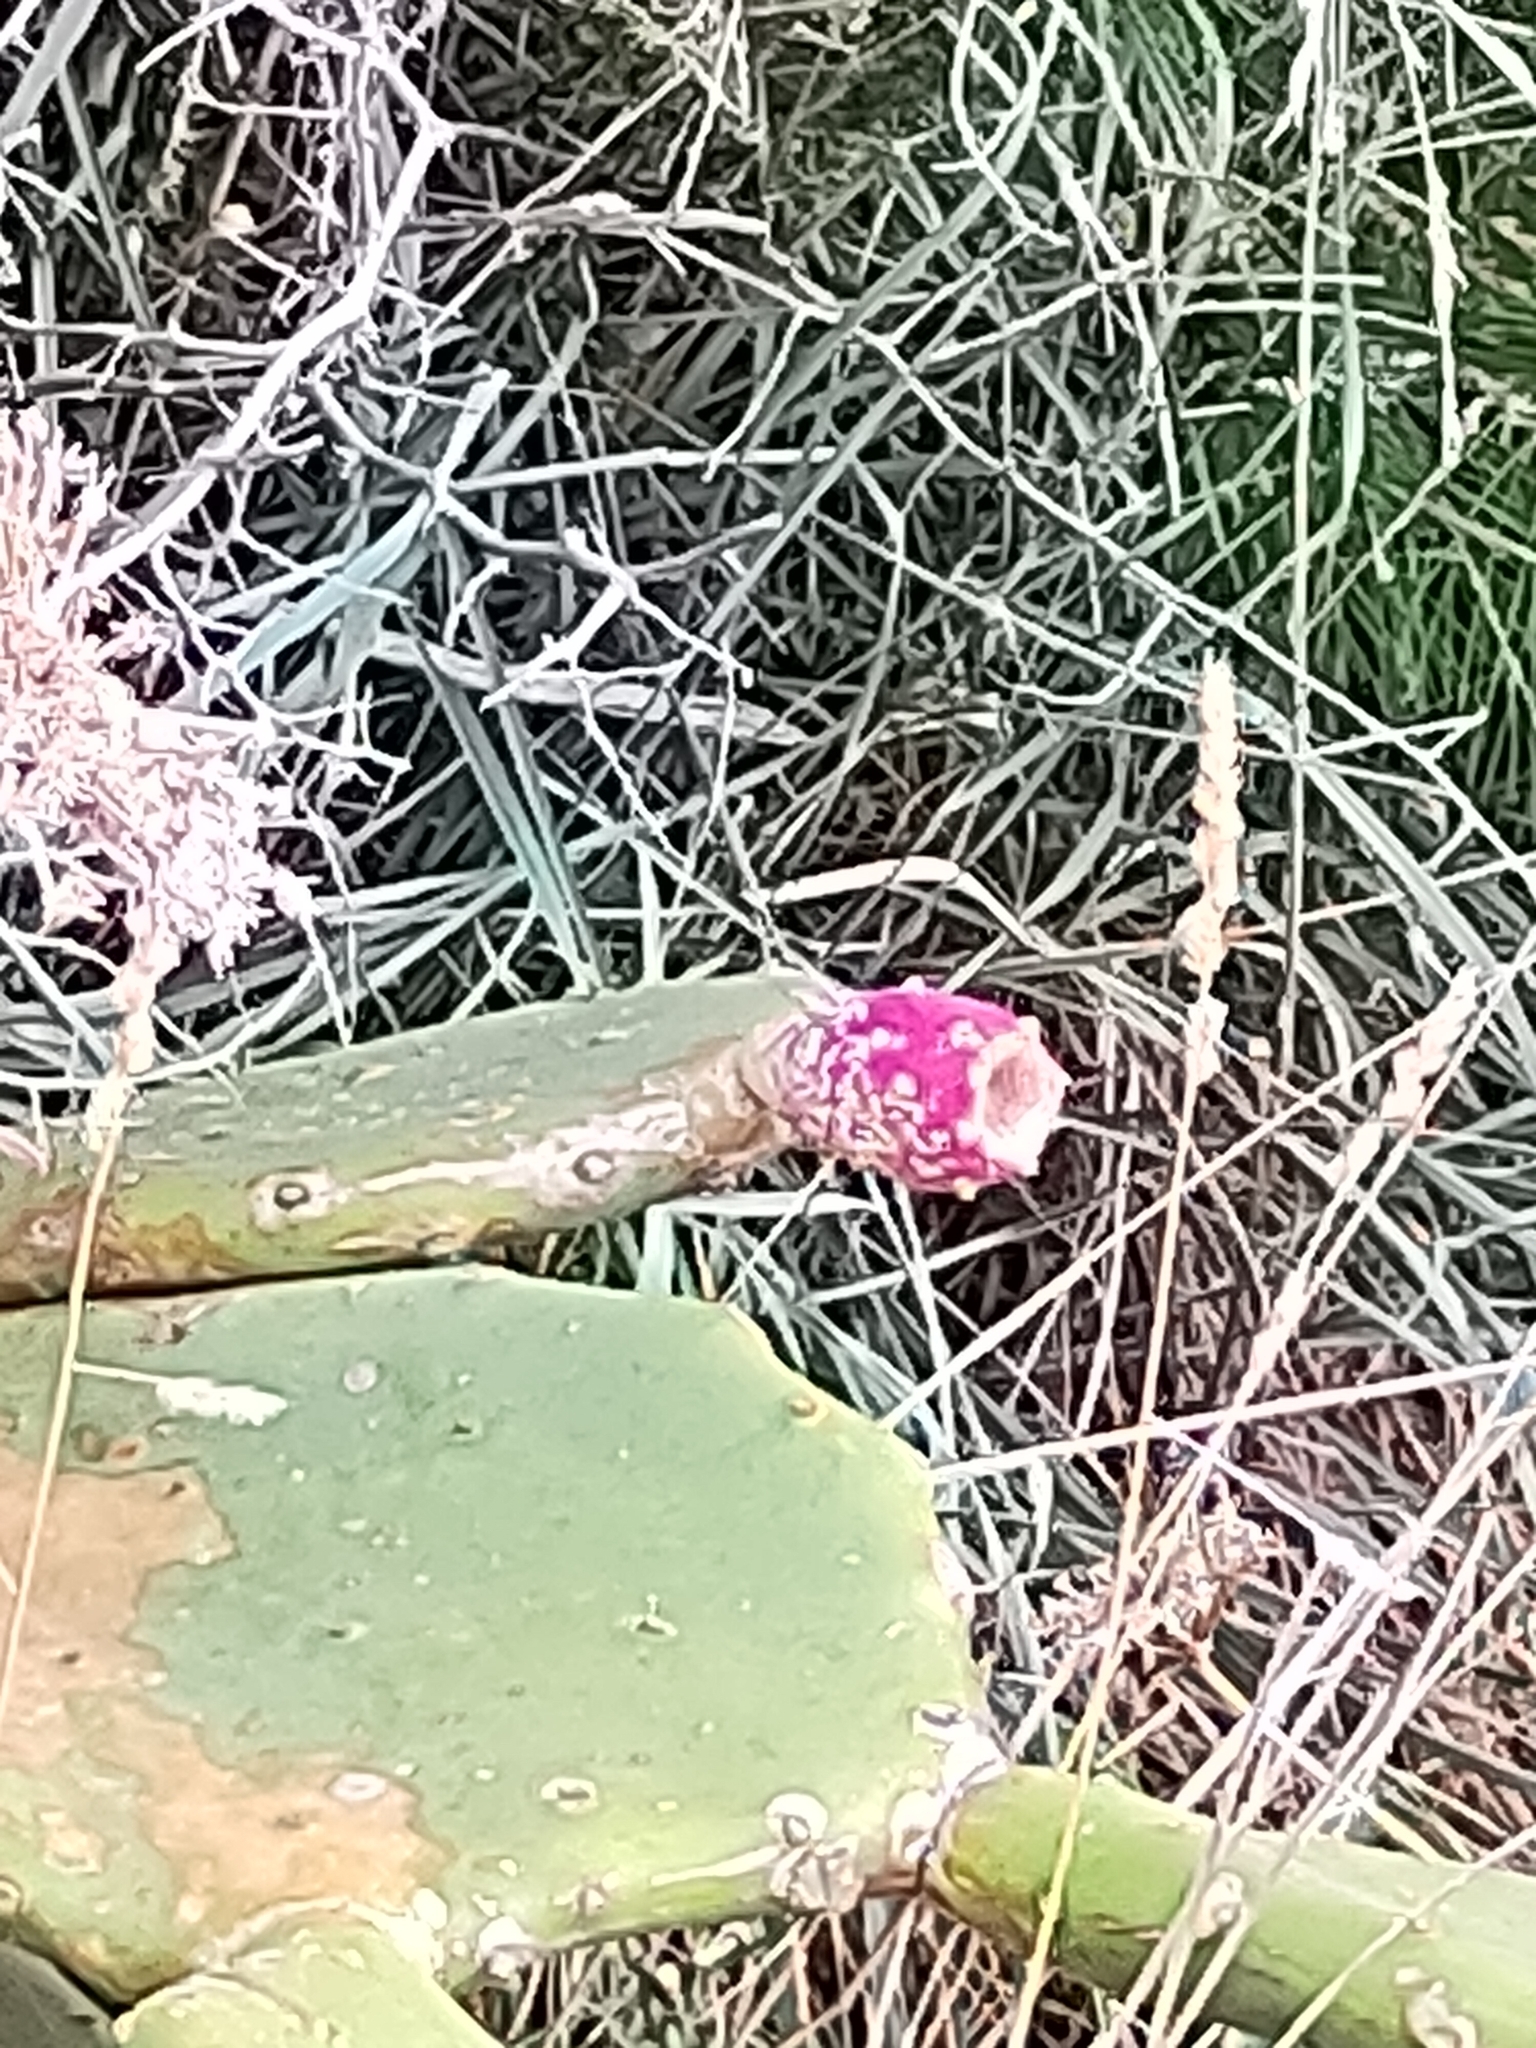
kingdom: Plantae
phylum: Tracheophyta
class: Magnoliopsida
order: Caryophyllales
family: Cactaceae
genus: Opuntia
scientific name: Opuntia anahuacensis
